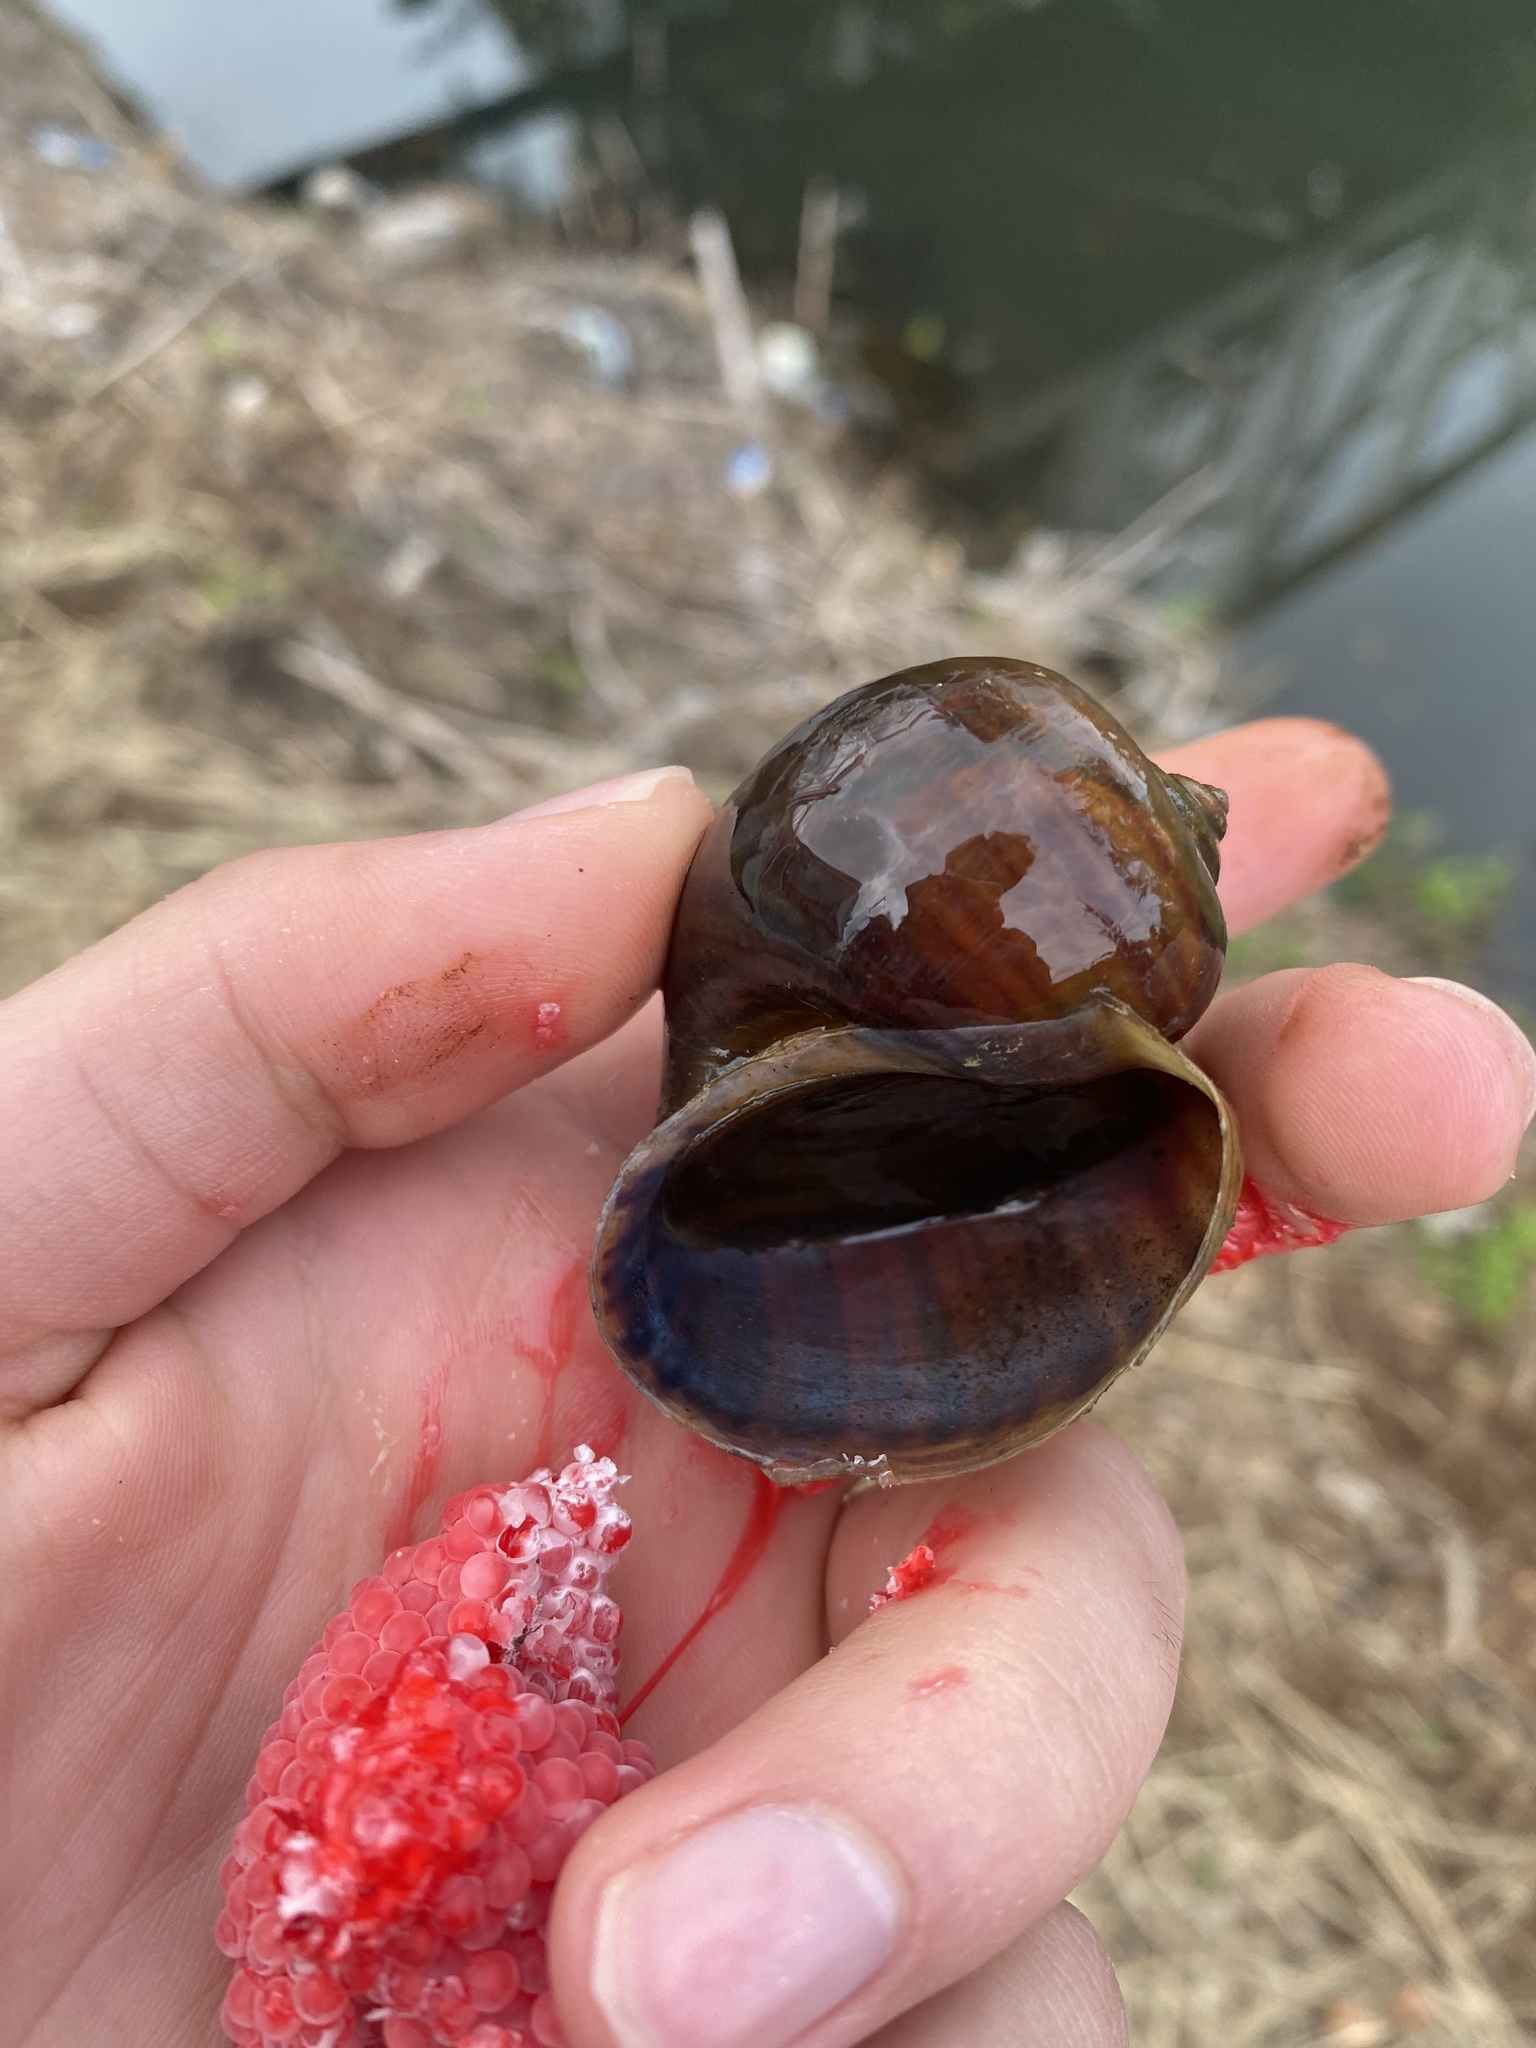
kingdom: Animalia
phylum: Mollusca
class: Gastropoda
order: Architaenioglossa
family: Ampullariidae
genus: Pomacea
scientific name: Pomacea canaliculata
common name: Channeled applesnail
